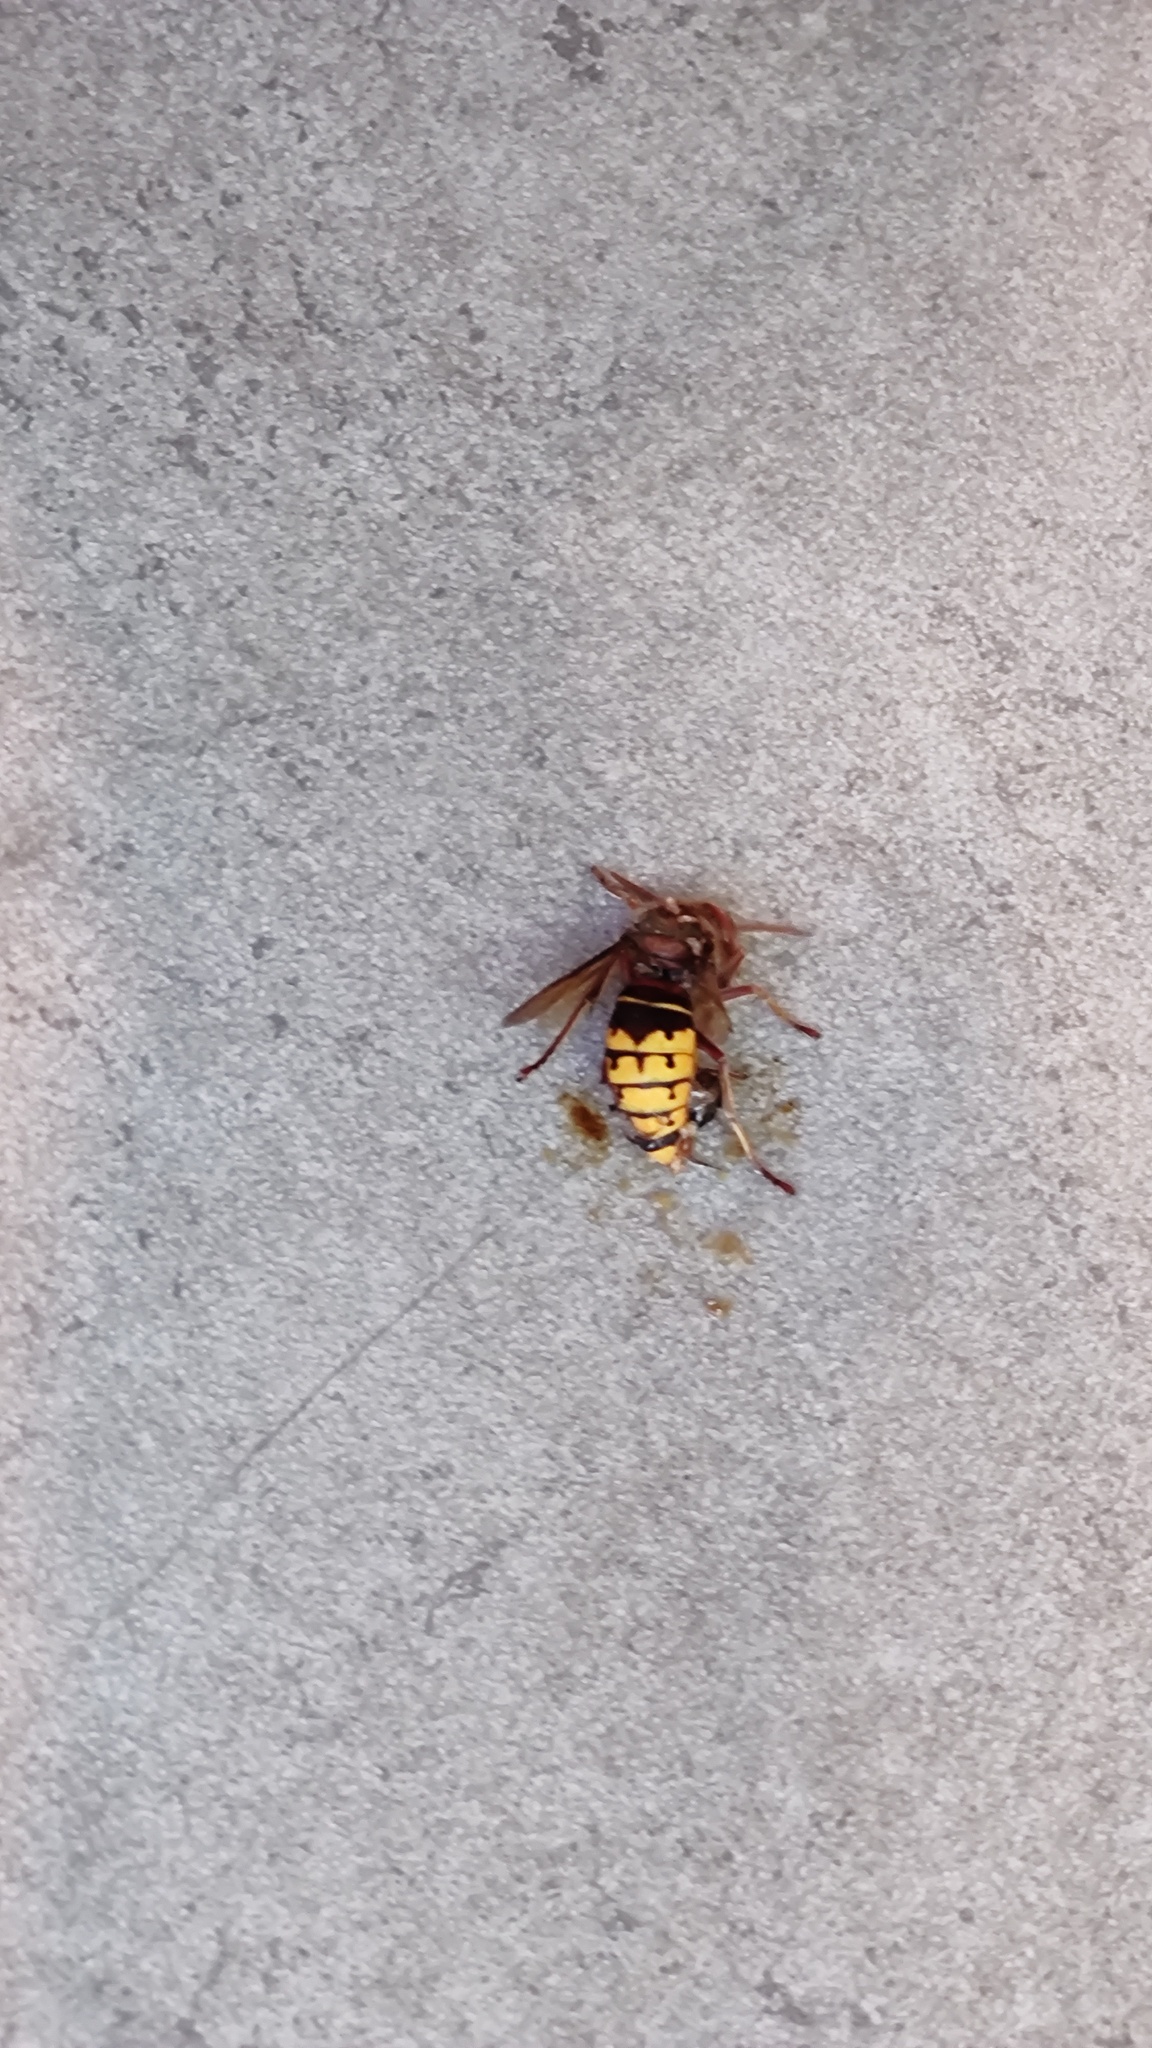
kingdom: Animalia
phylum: Arthropoda
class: Insecta
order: Hymenoptera
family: Vespidae
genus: Vespa
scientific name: Vespa crabro
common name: Hornet
